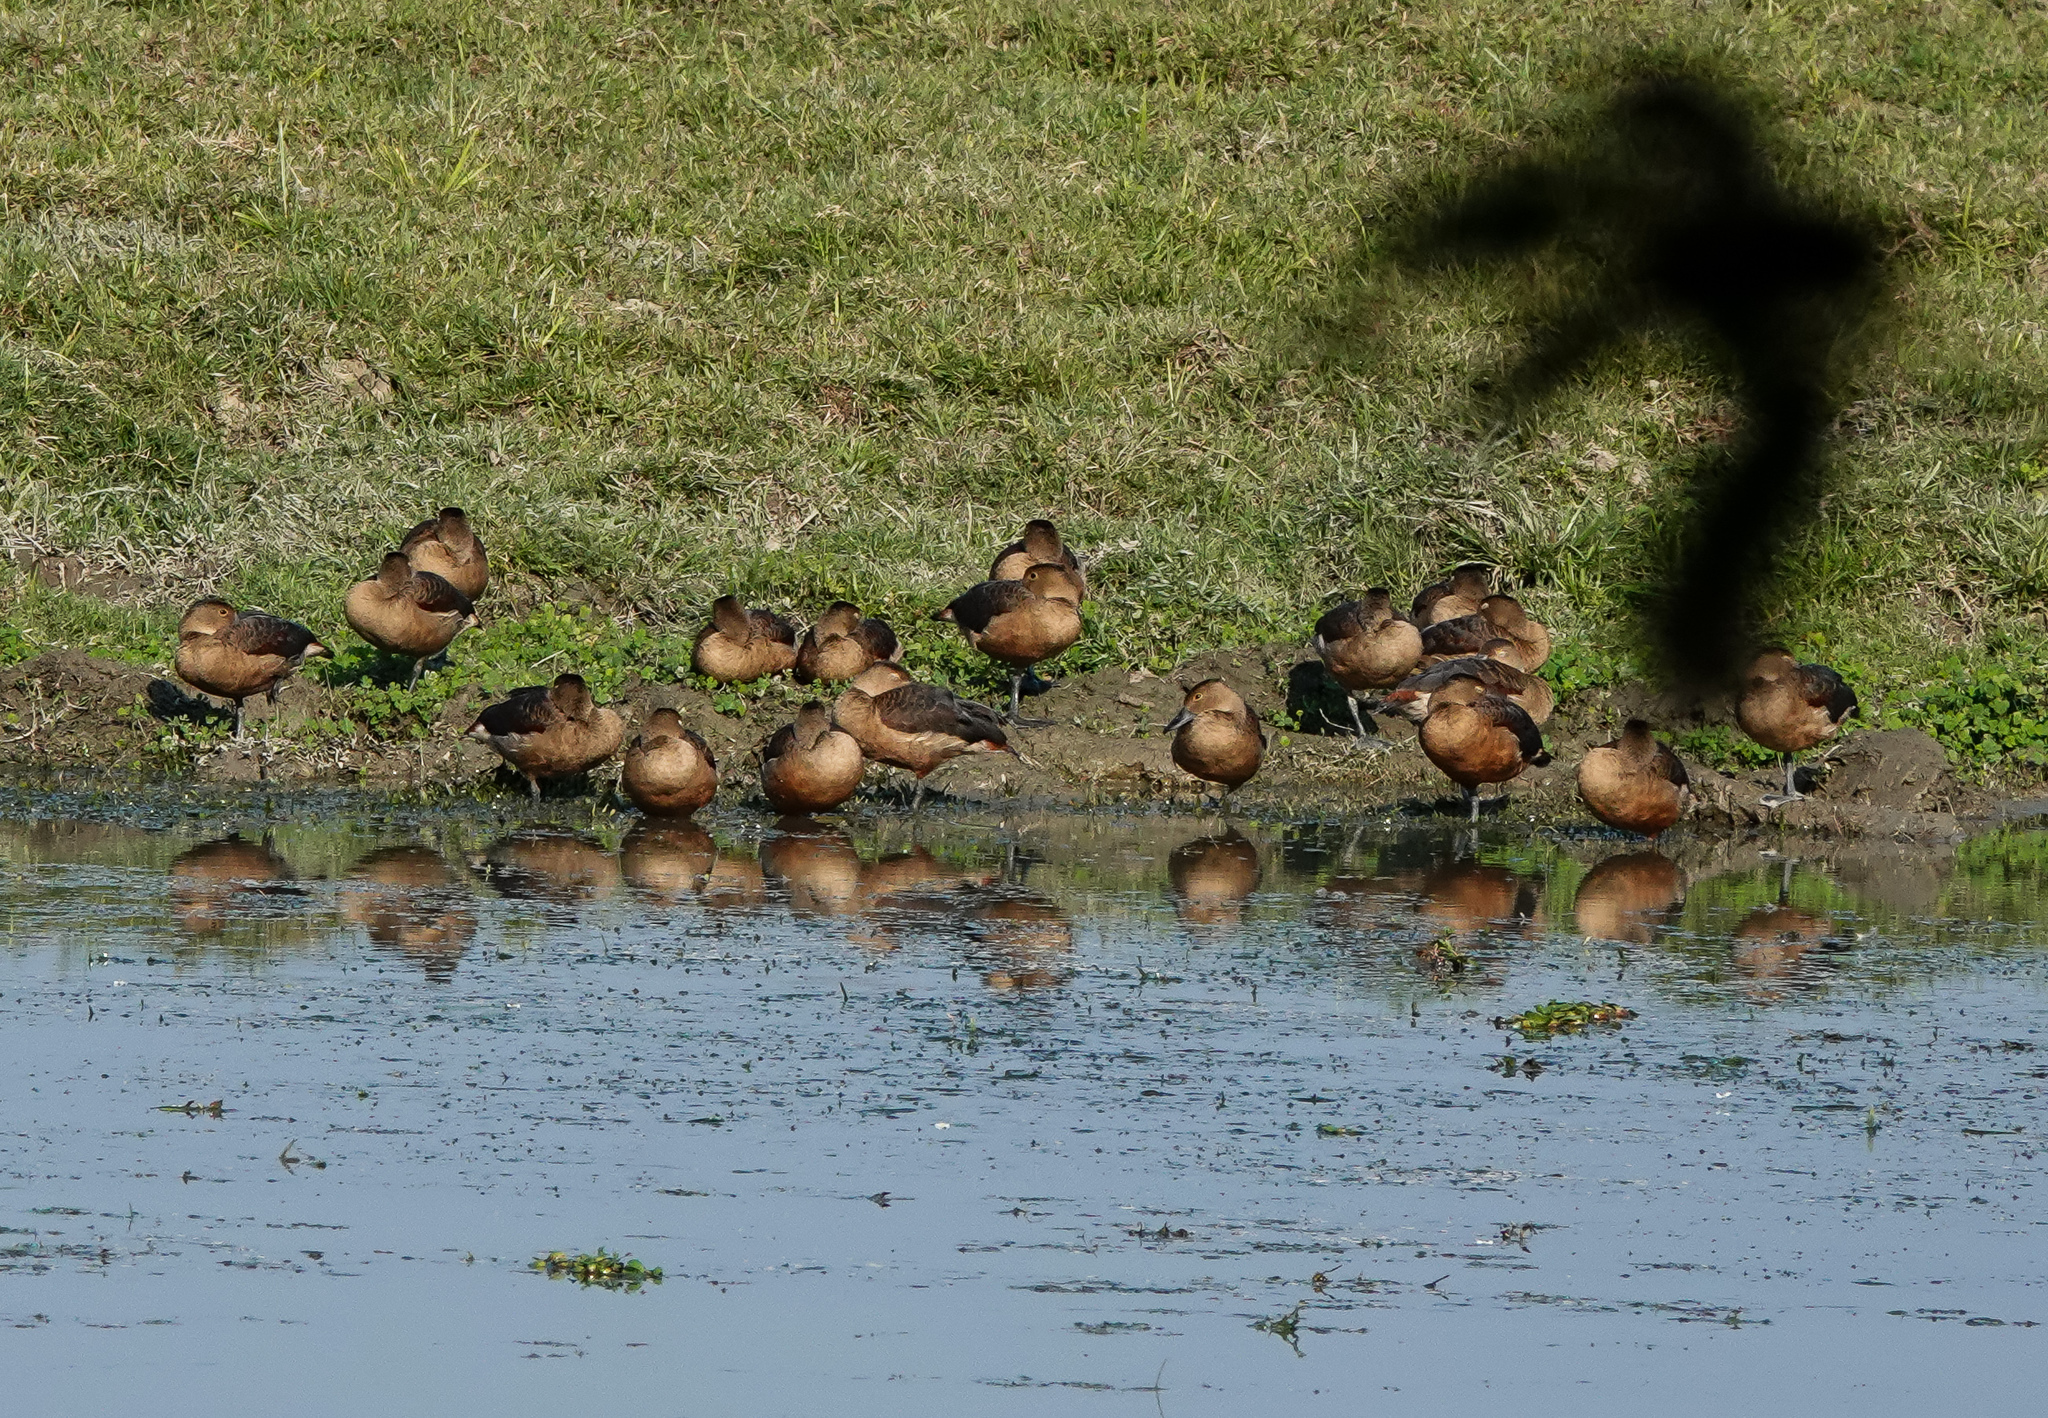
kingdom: Animalia
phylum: Chordata
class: Aves
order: Anseriformes
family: Anatidae
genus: Dendrocygna
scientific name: Dendrocygna javanica
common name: Lesser whistling-duck
